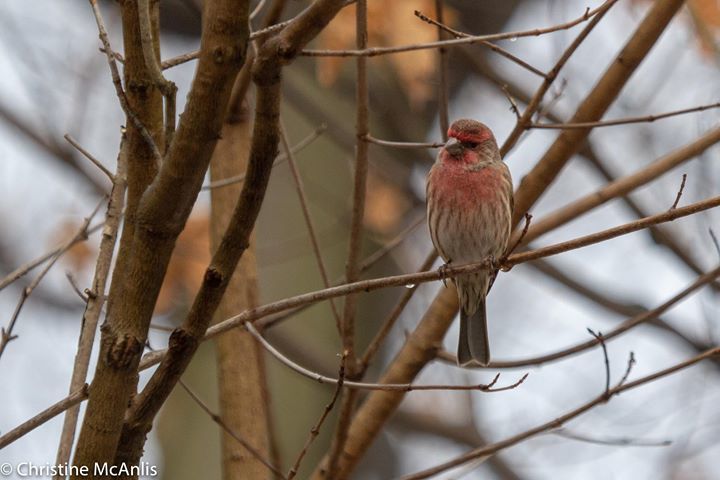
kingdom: Animalia
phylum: Chordata
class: Aves
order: Passeriformes
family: Fringillidae
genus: Haemorhous
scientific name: Haemorhous mexicanus
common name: House finch
